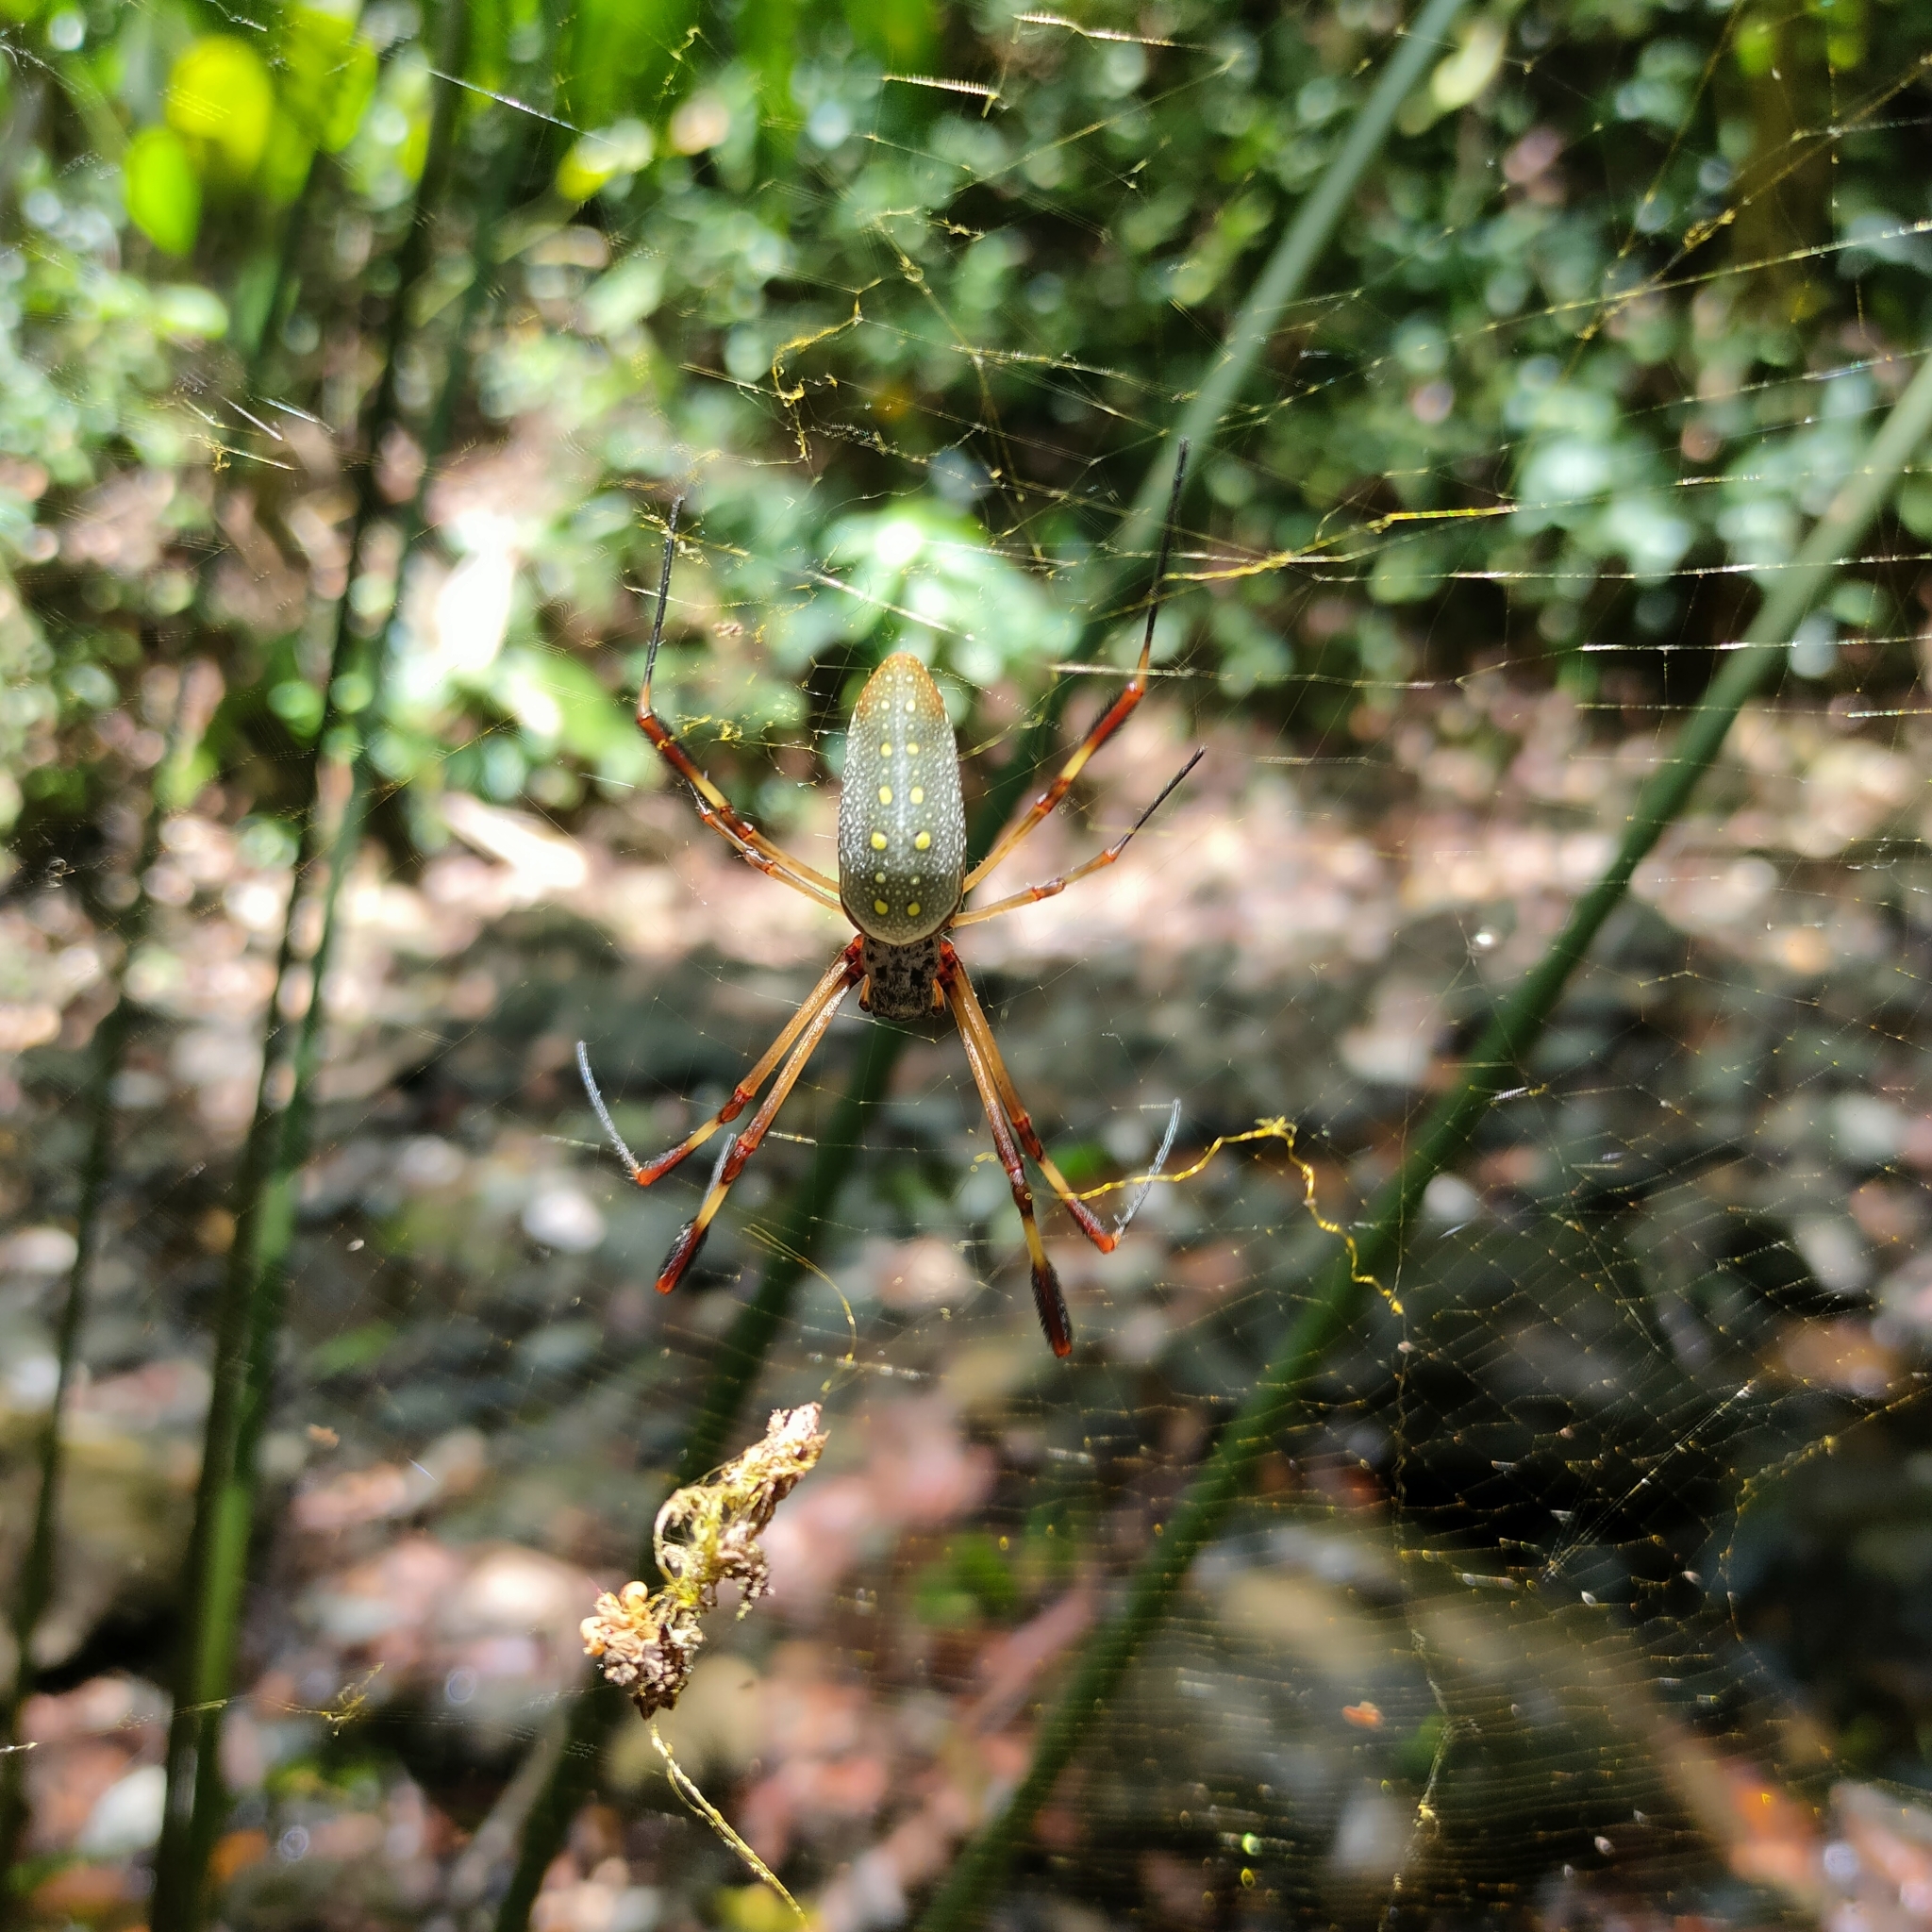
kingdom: Animalia
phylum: Arthropoda
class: Arachnida
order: Araneae
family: Araneidae
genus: Trichonephila
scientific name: Trichonephila clavipes
